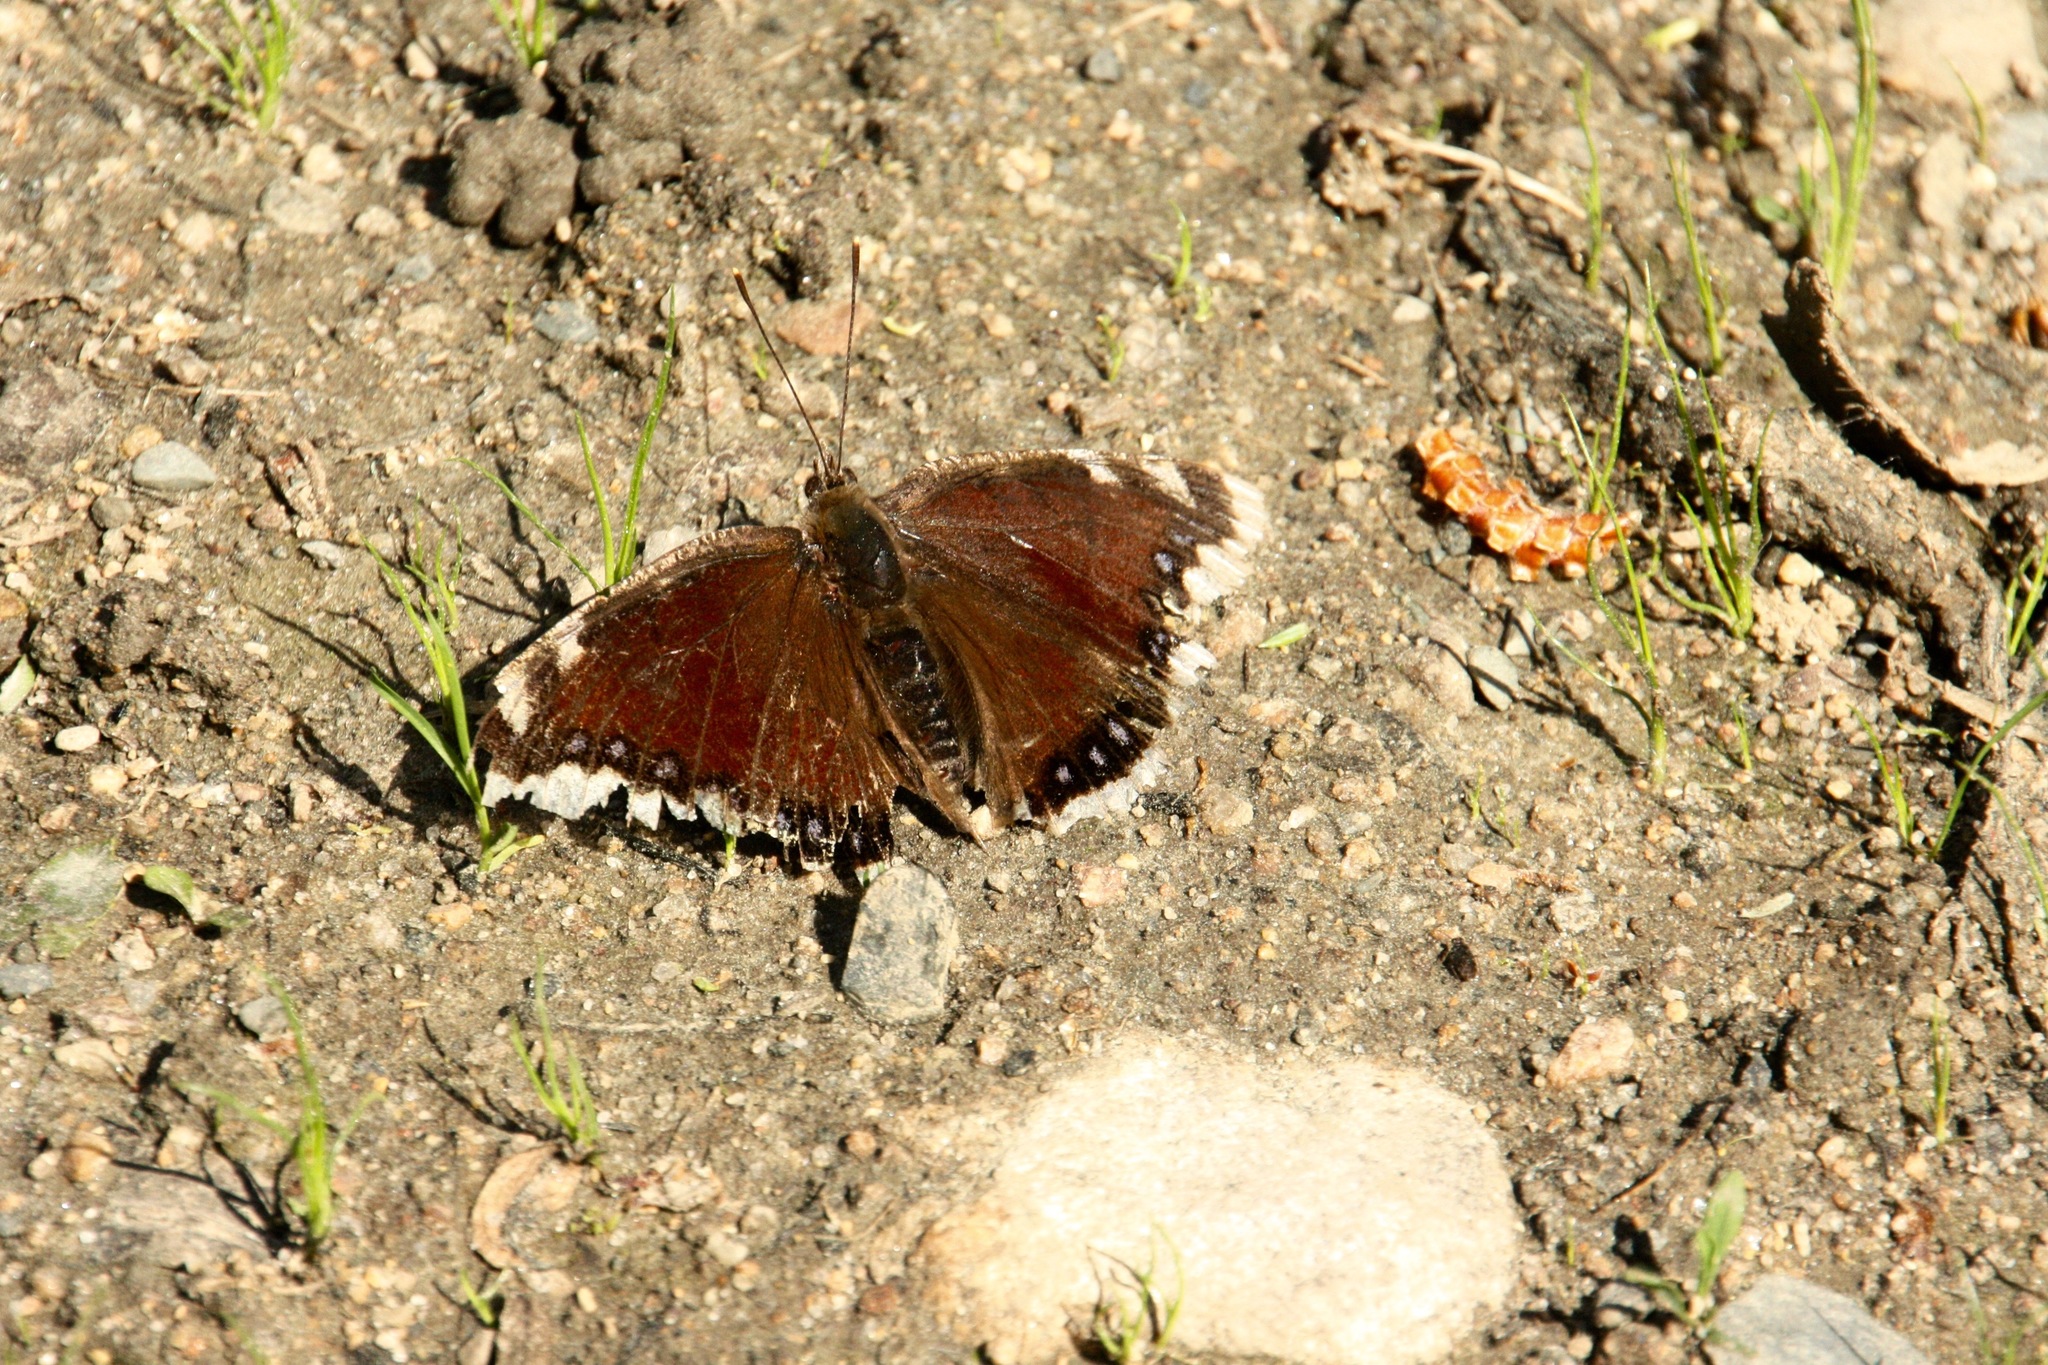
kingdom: Animalia
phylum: Arthropoda
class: Insecta
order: Lepidoptera
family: Nymphalidae
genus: Nymphalis
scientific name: Nymphalis antiopa
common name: Camberwell beauty
